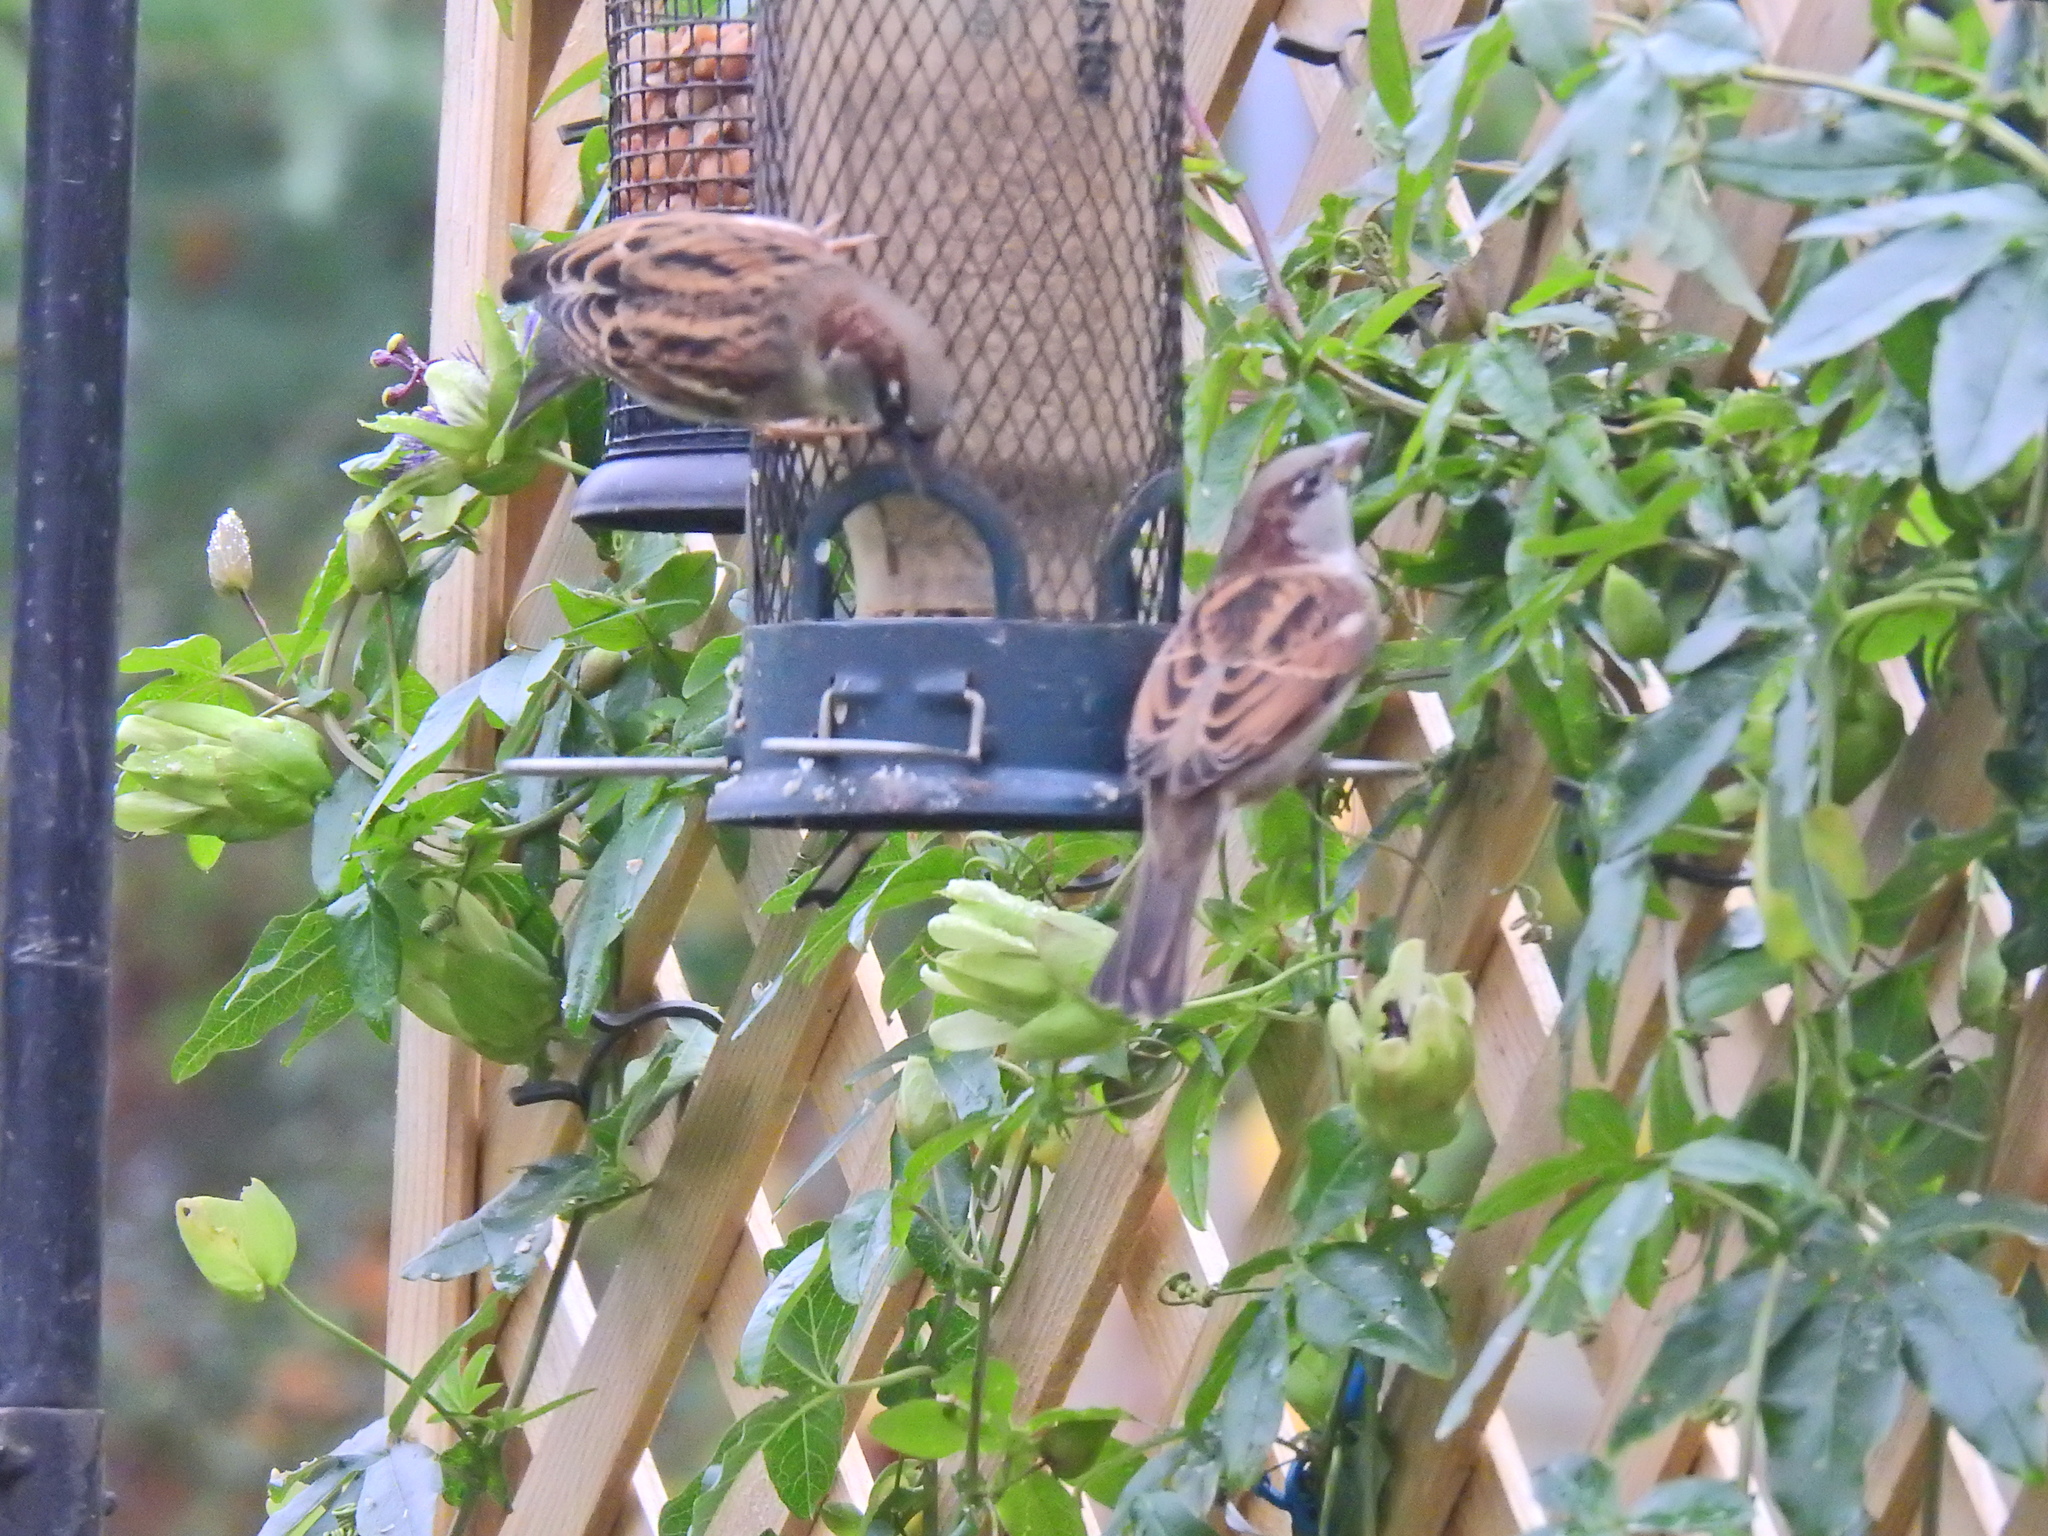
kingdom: Animalia
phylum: Chordata
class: Aves
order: Passeriformes
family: Passeridae
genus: Passer
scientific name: Passer domesticus
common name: House sparrow
